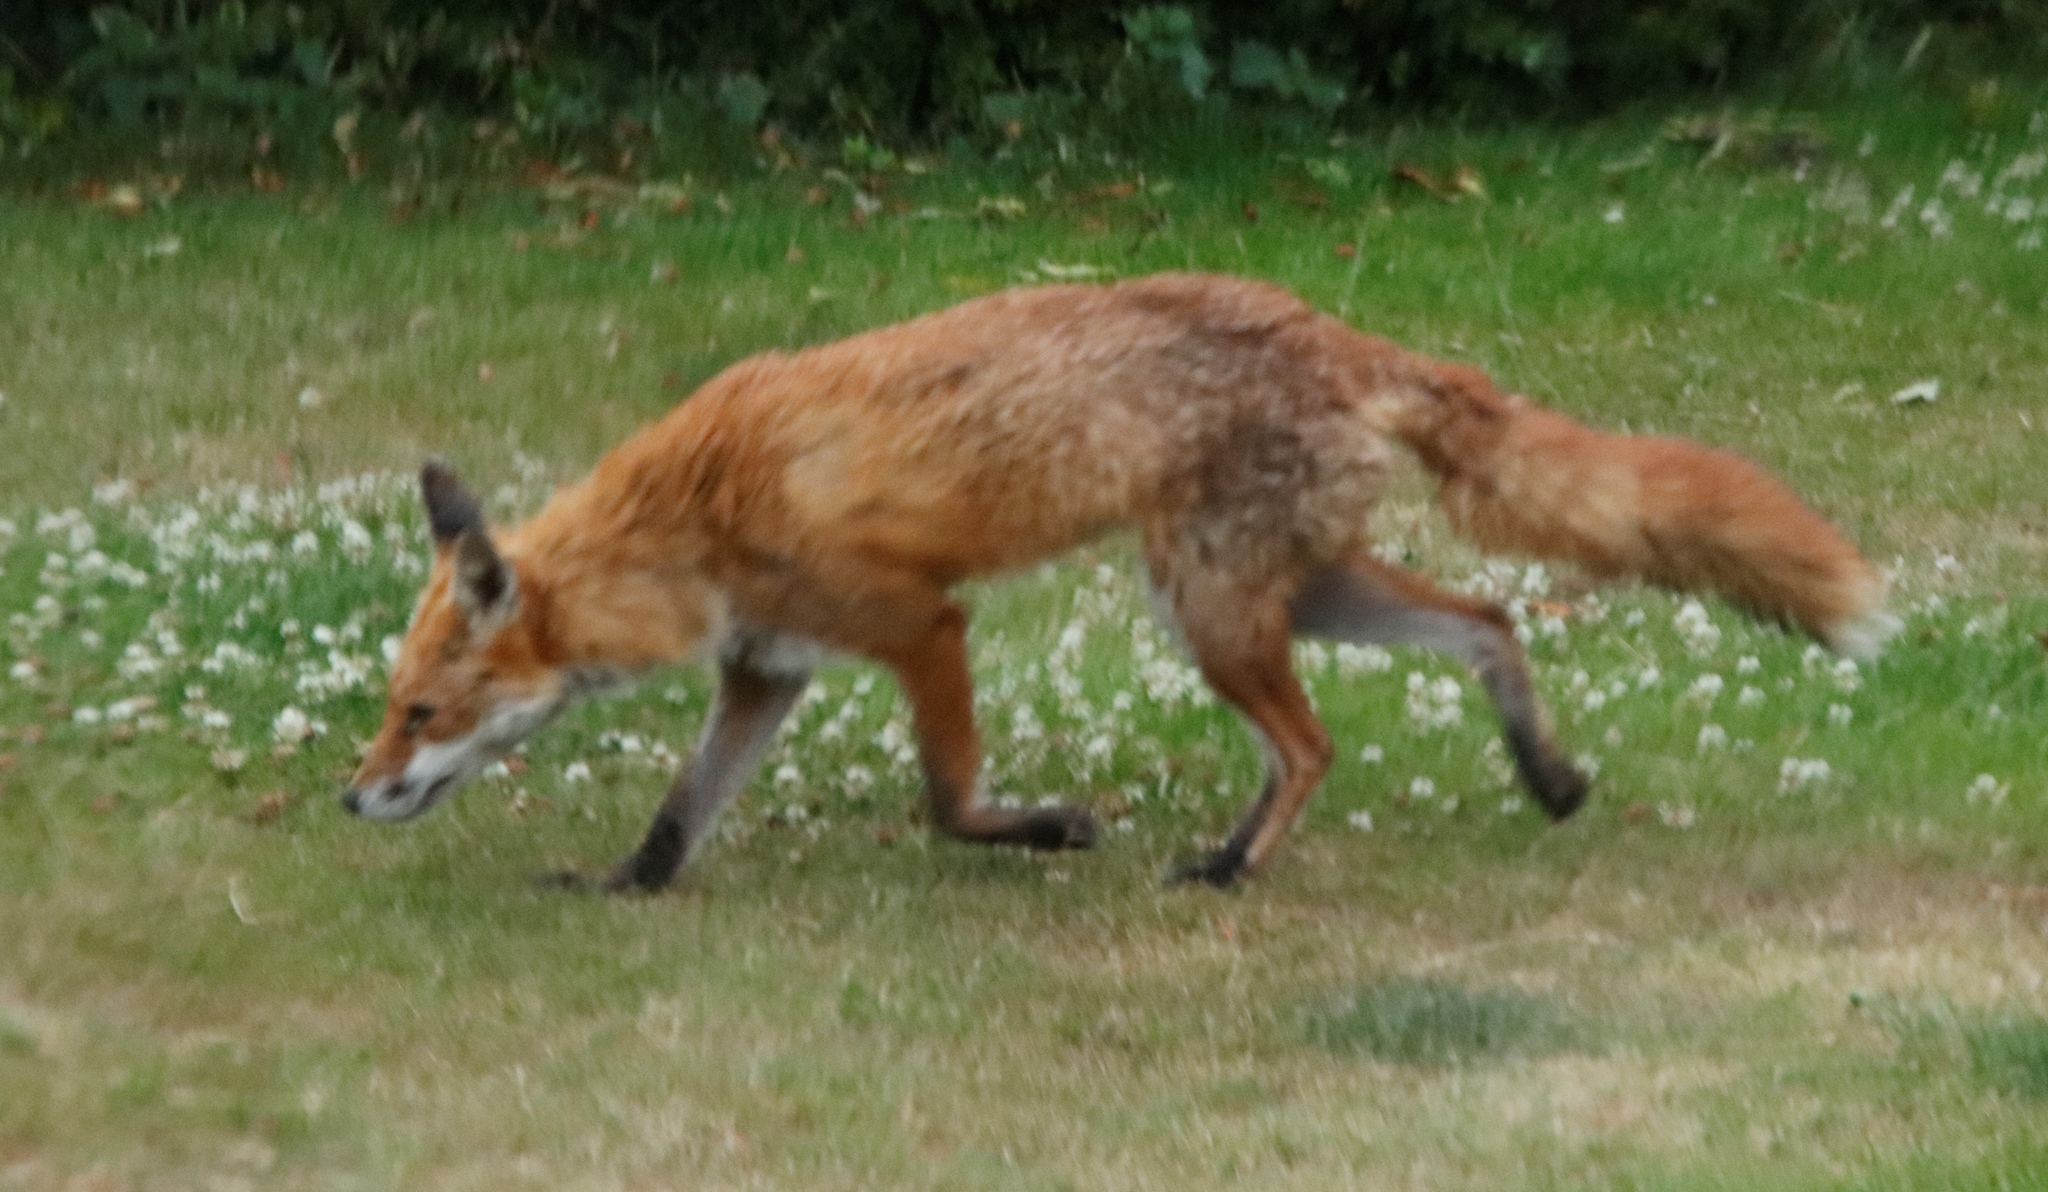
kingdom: Animalia
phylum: Chordata
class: Mammalia
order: Carnivora
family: Canidae
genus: Vulpes
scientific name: Vulpes vulpes
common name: Red fox
